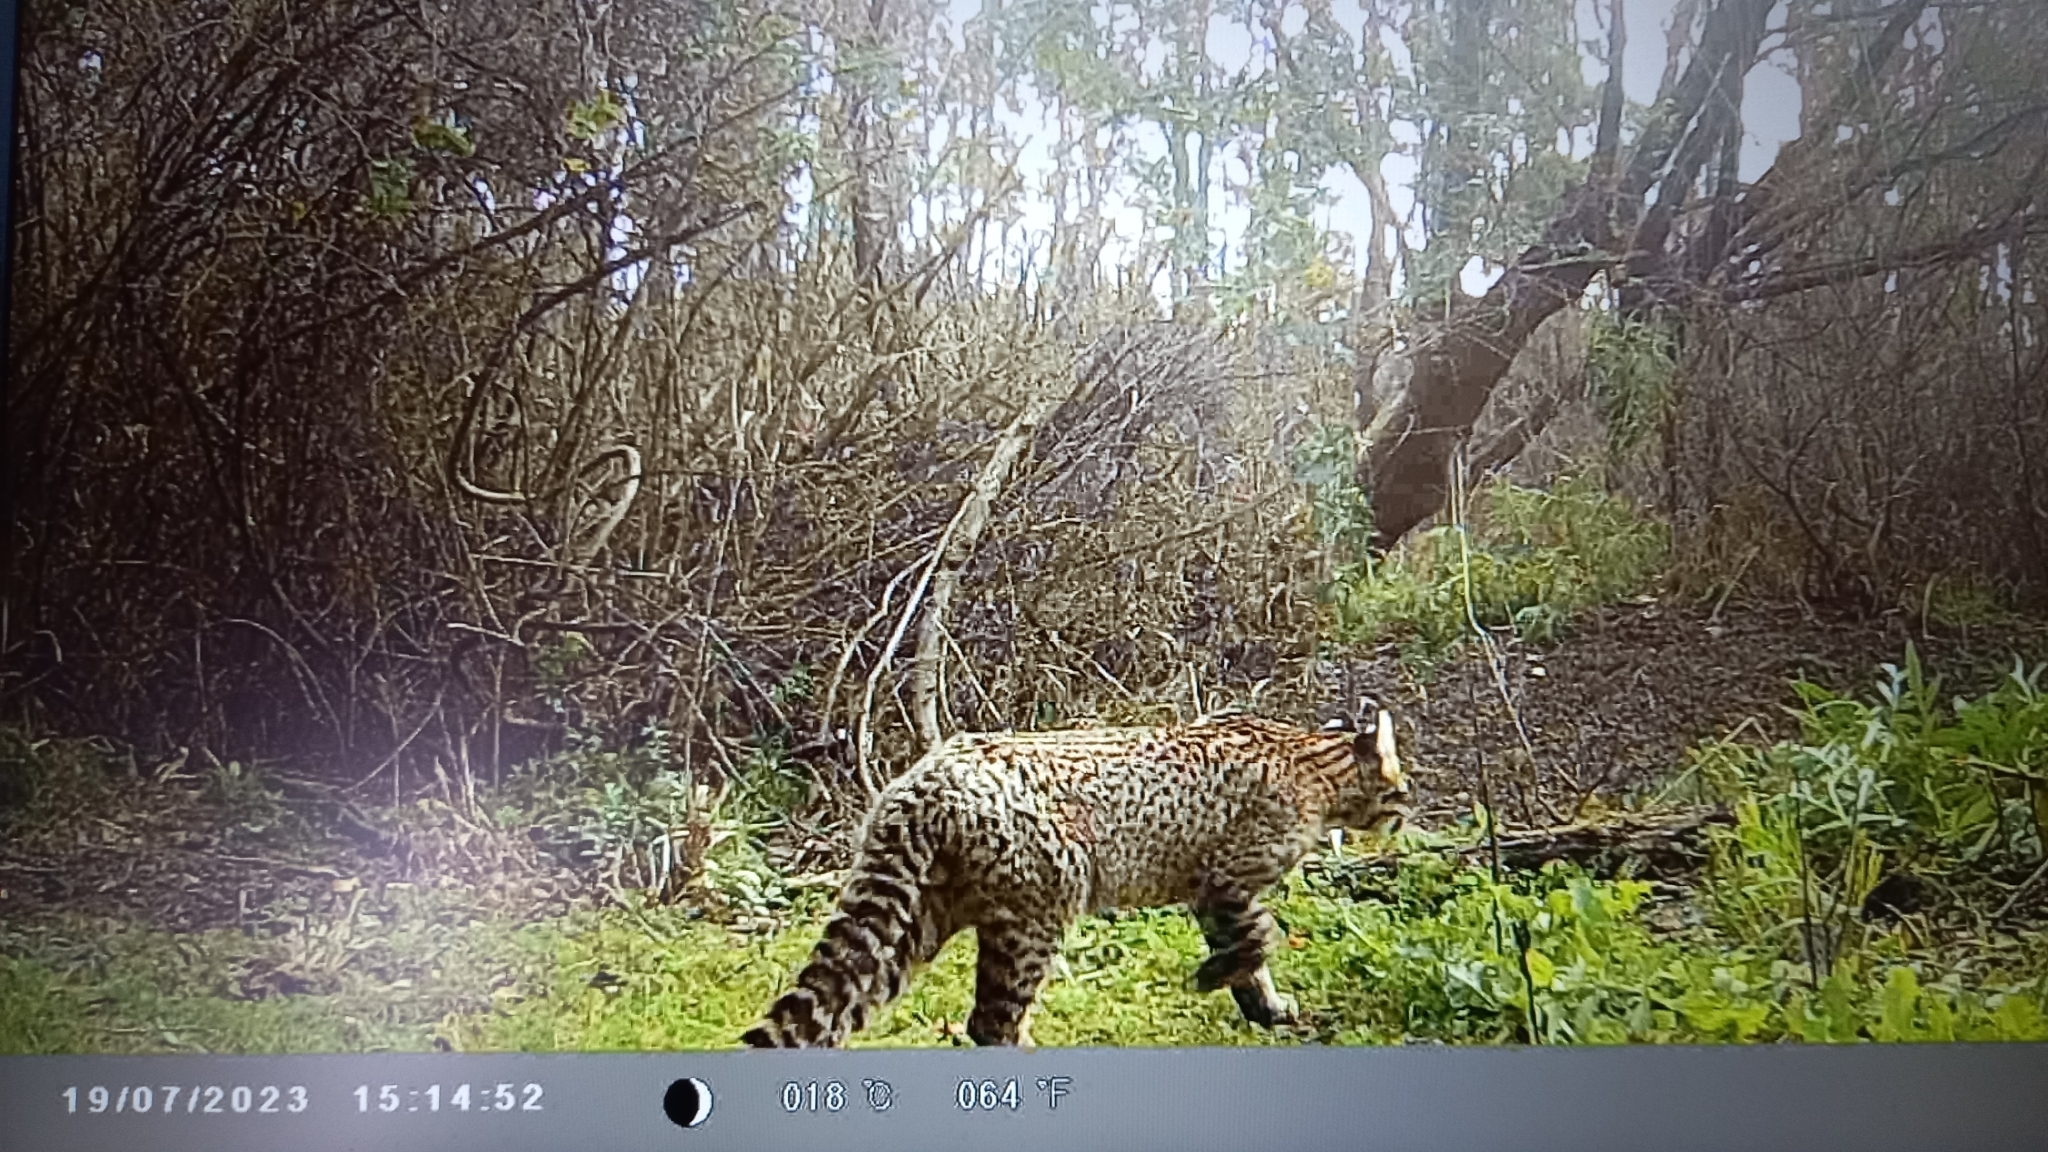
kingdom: Animalia
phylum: Chordata
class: Mammalia
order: Carnivora
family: Felidae
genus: Leopardus
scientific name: Leopardus geoffroyi
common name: Geoffroy's cat
